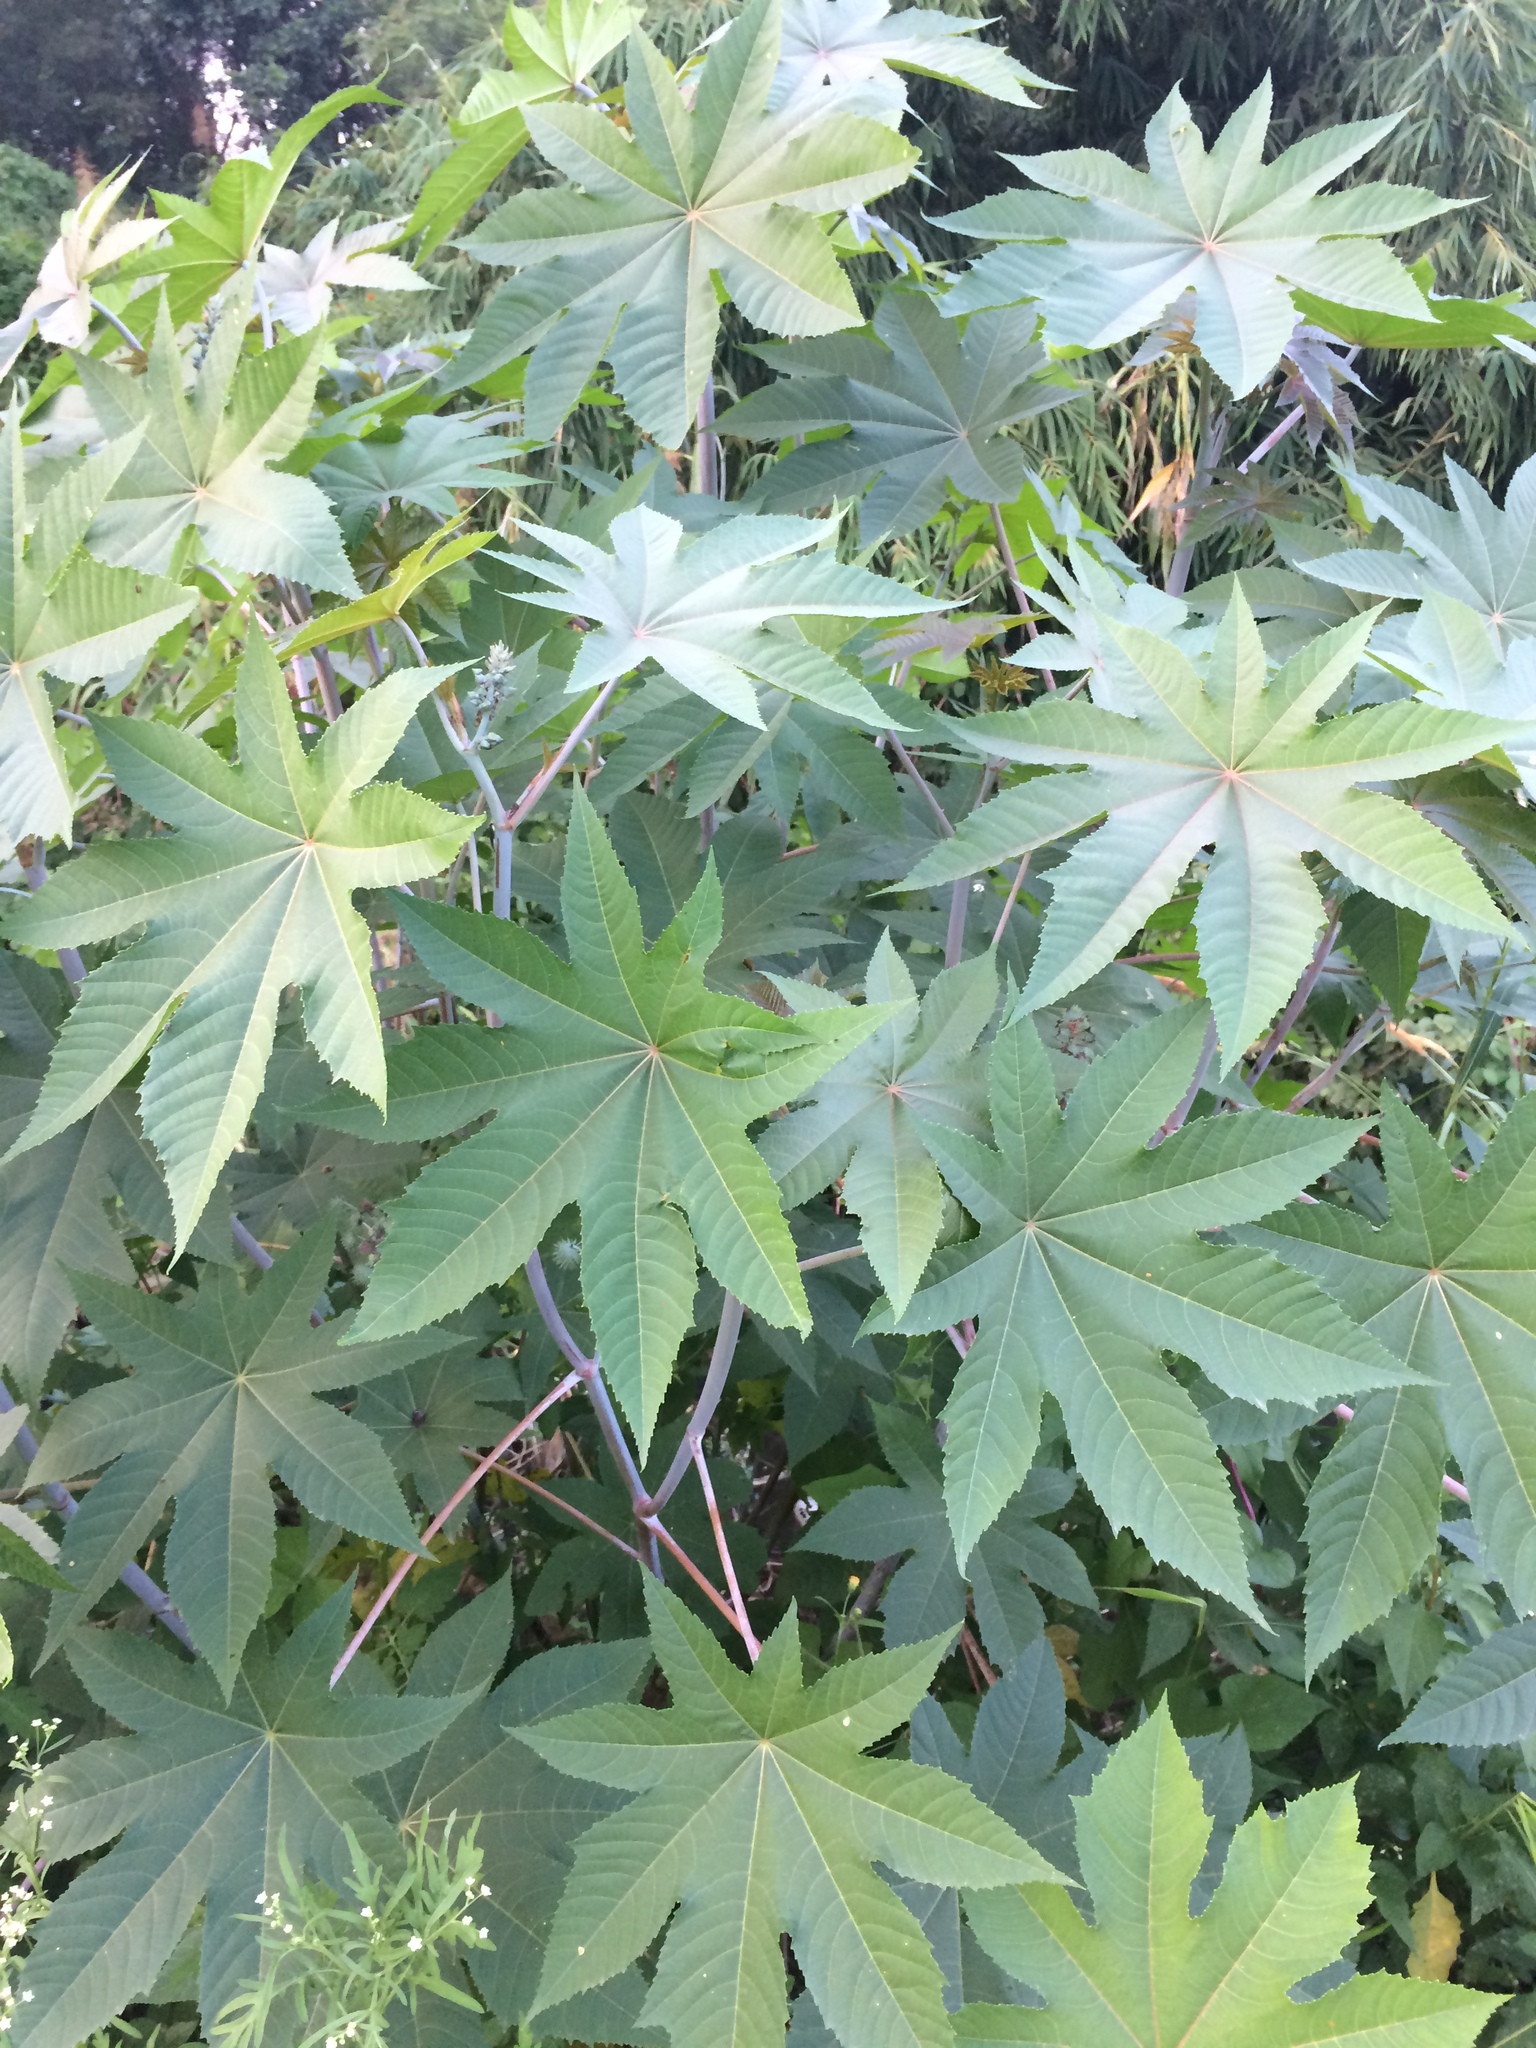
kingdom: Plantae
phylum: Tracheophyta
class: Magnoliopsida
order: Malpighiales
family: Euphorbiaceae
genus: Ricinus
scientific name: Ricinus communis
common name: Castor-oil-plant
